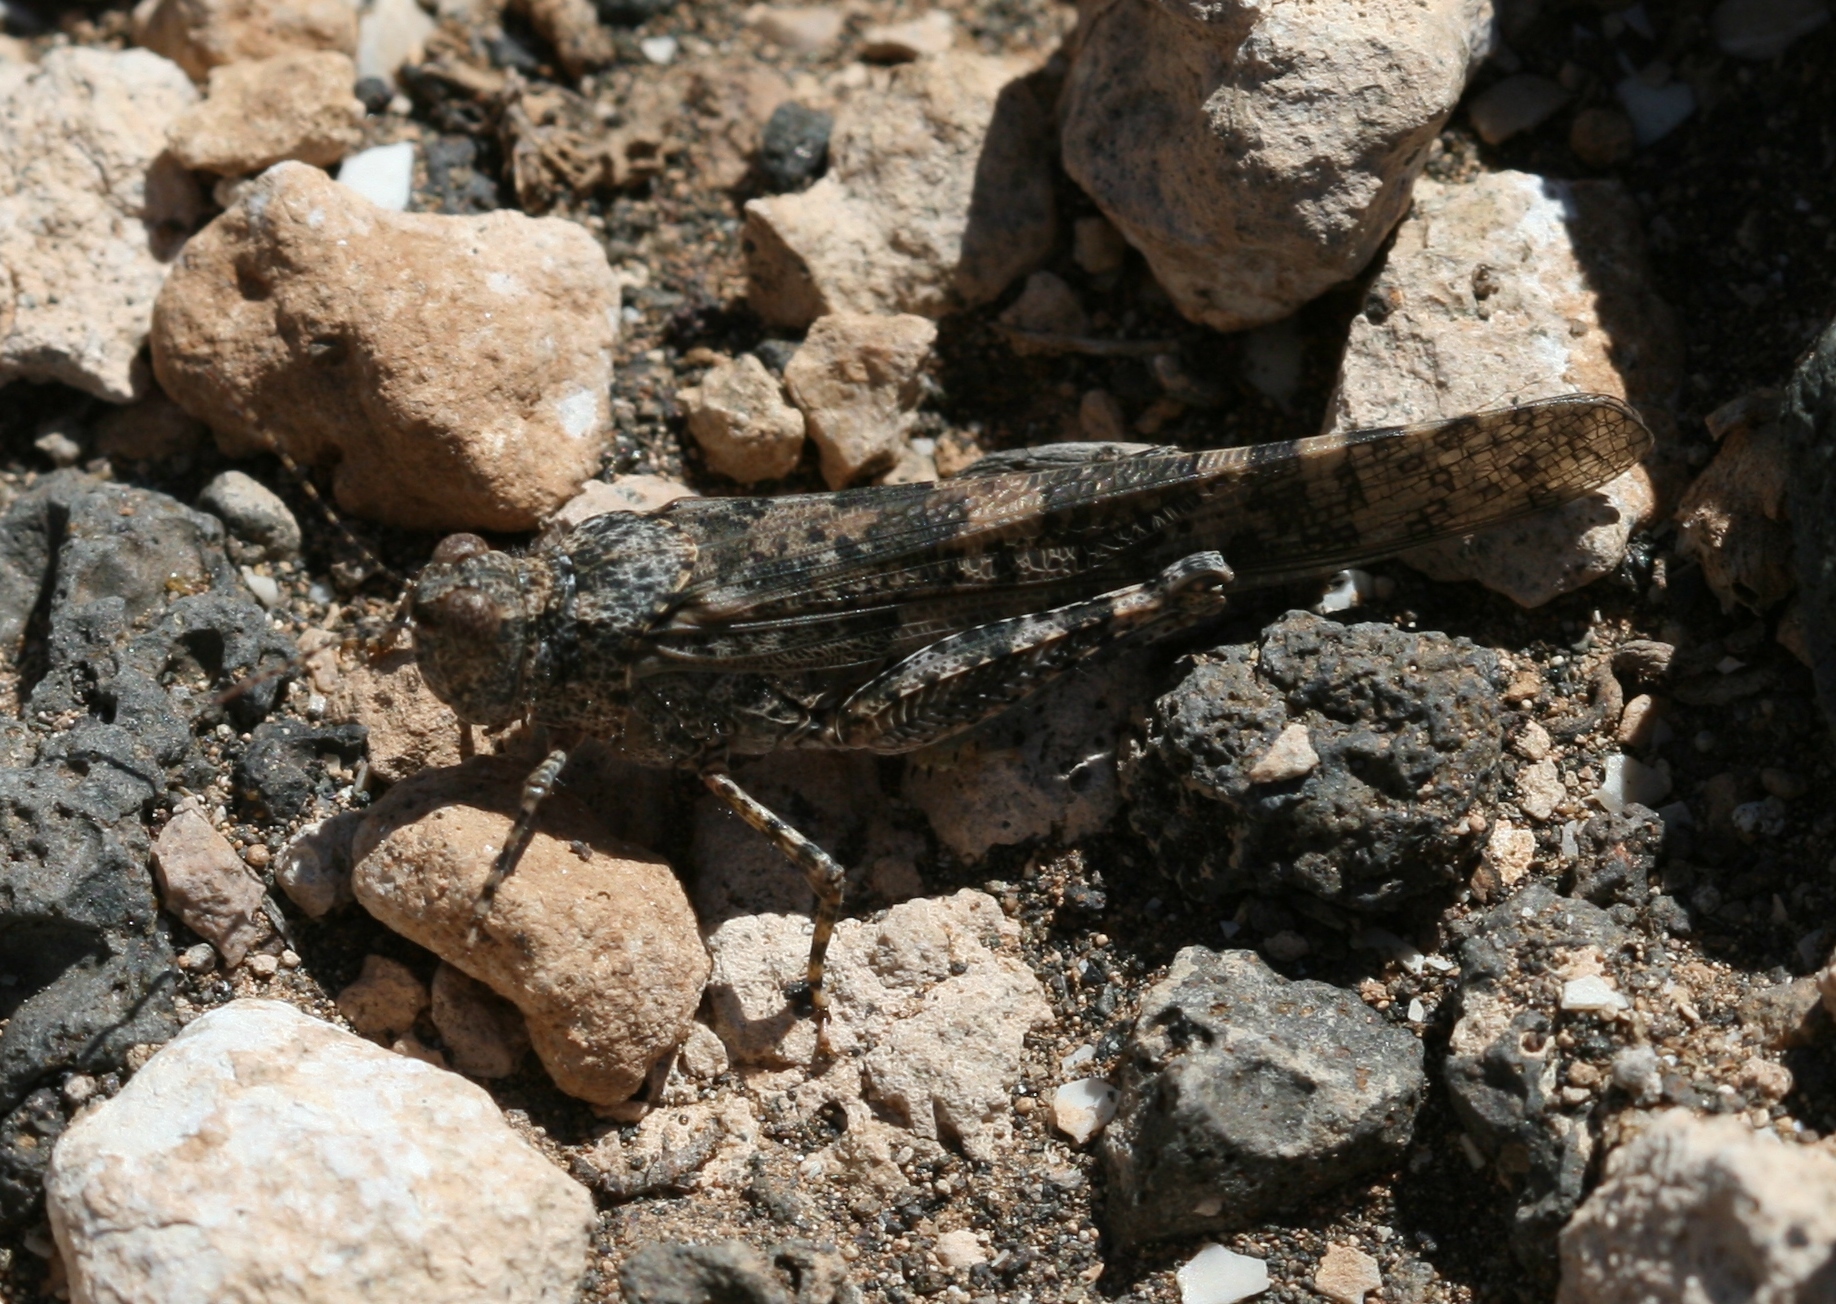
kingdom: Animalia
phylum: Arthropoda
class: Insecta
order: Orthoptera
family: Acrididae
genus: Sphingonotus
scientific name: Sphingonotus pachecoi
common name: Lanzarote sand grasshopper
